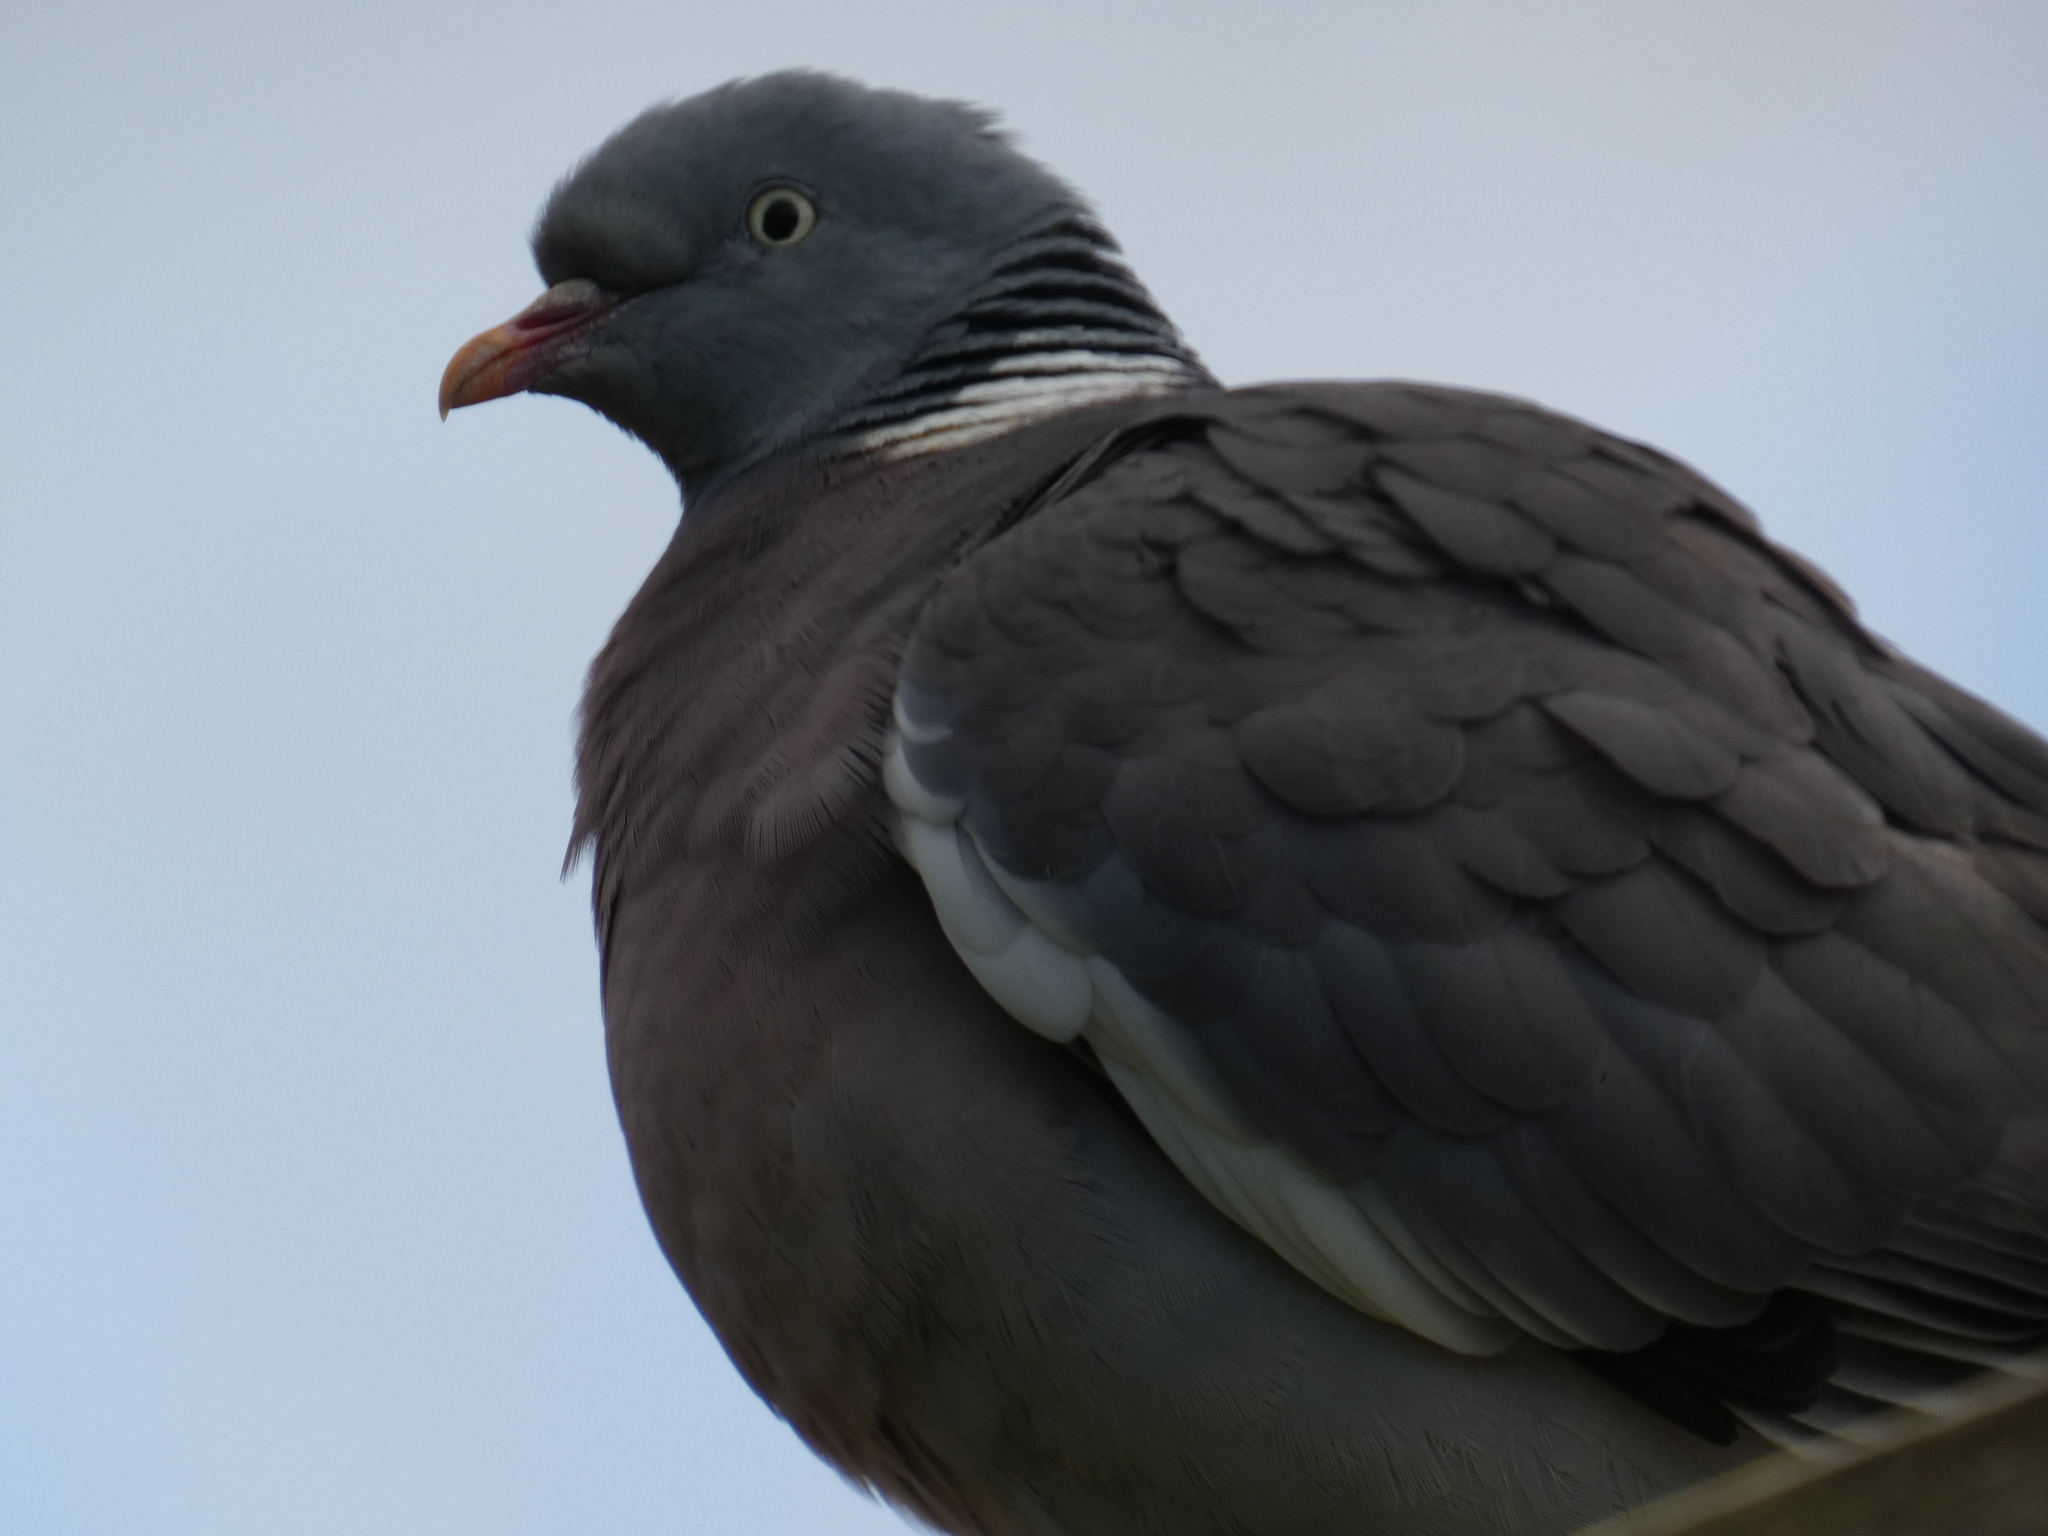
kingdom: Animalia
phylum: Chordata
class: Aves
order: Columbiformes
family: Columbidae
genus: Columba
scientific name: Columba palumbus
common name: Common wood pigeon
